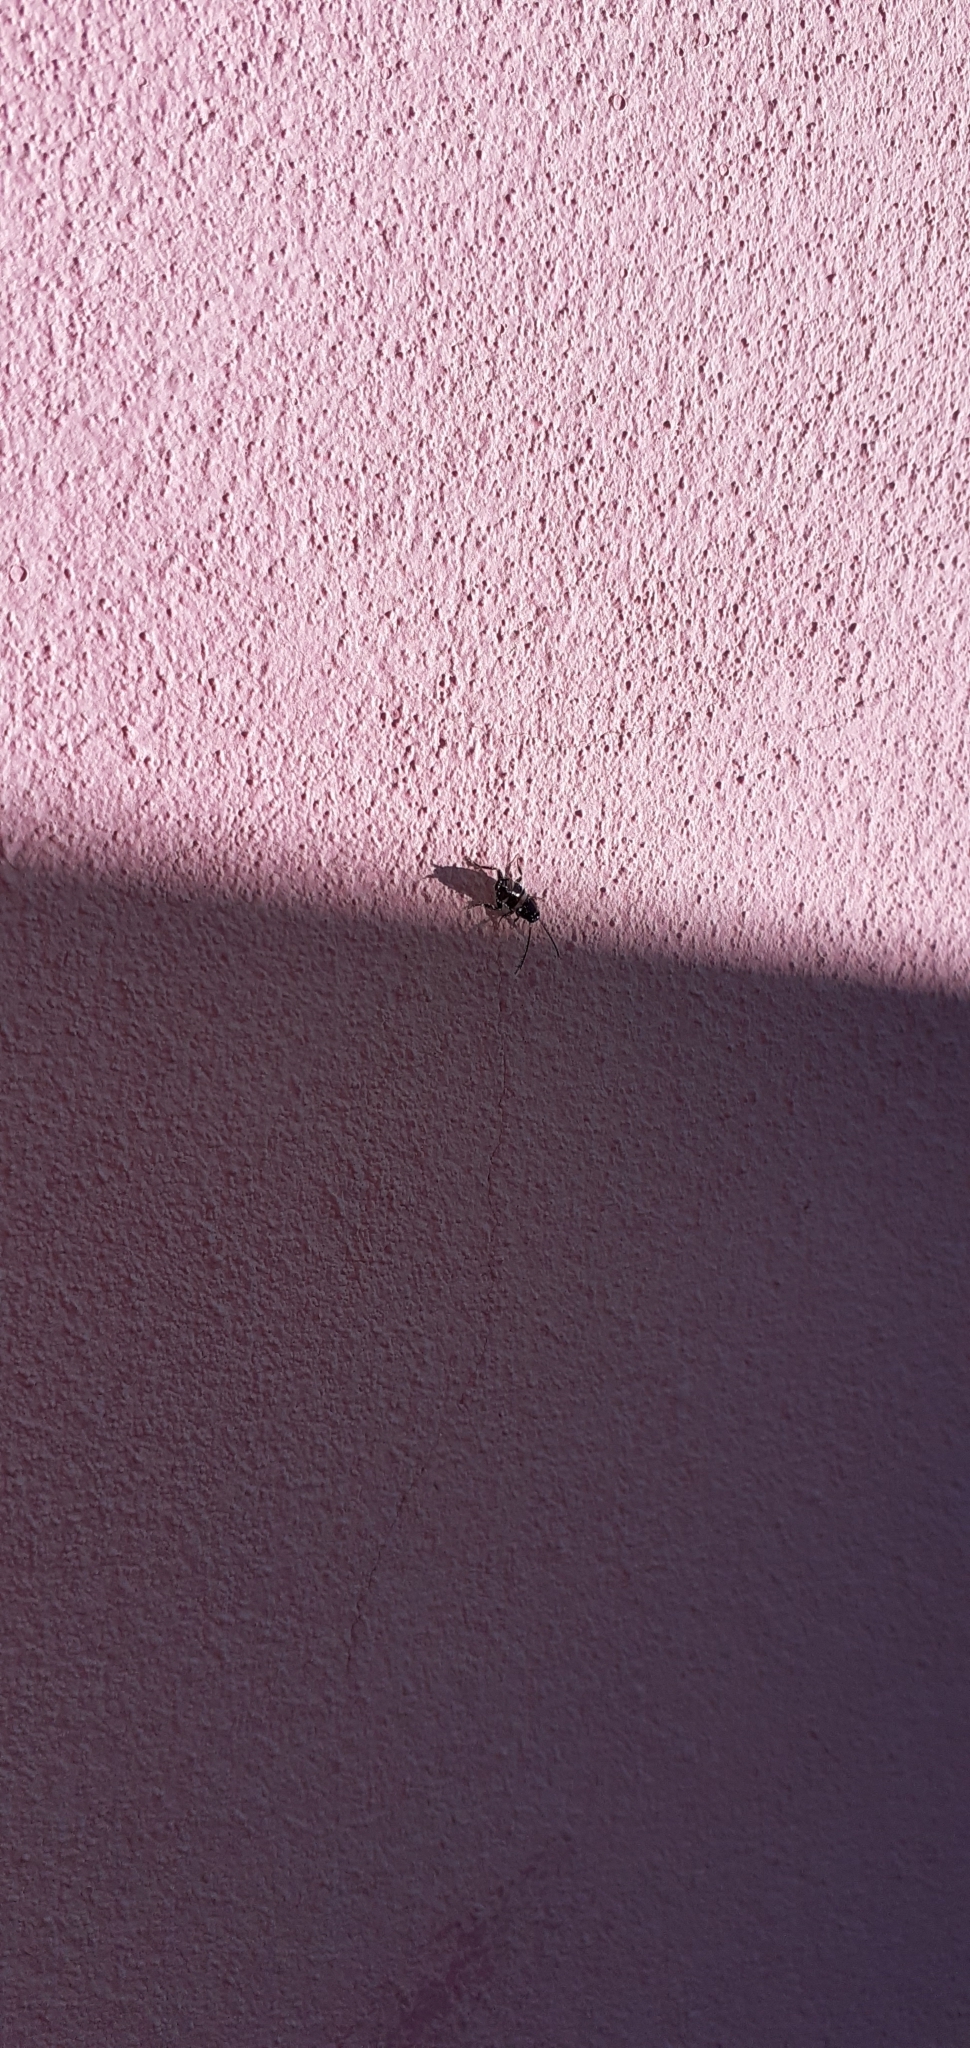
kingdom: Animalia
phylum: Arthropoda
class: Insecta
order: Blattodea
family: Blattidae
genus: Periplaneta
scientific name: Periplaneta fuliginosa
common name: Smokeybrown cockroad
